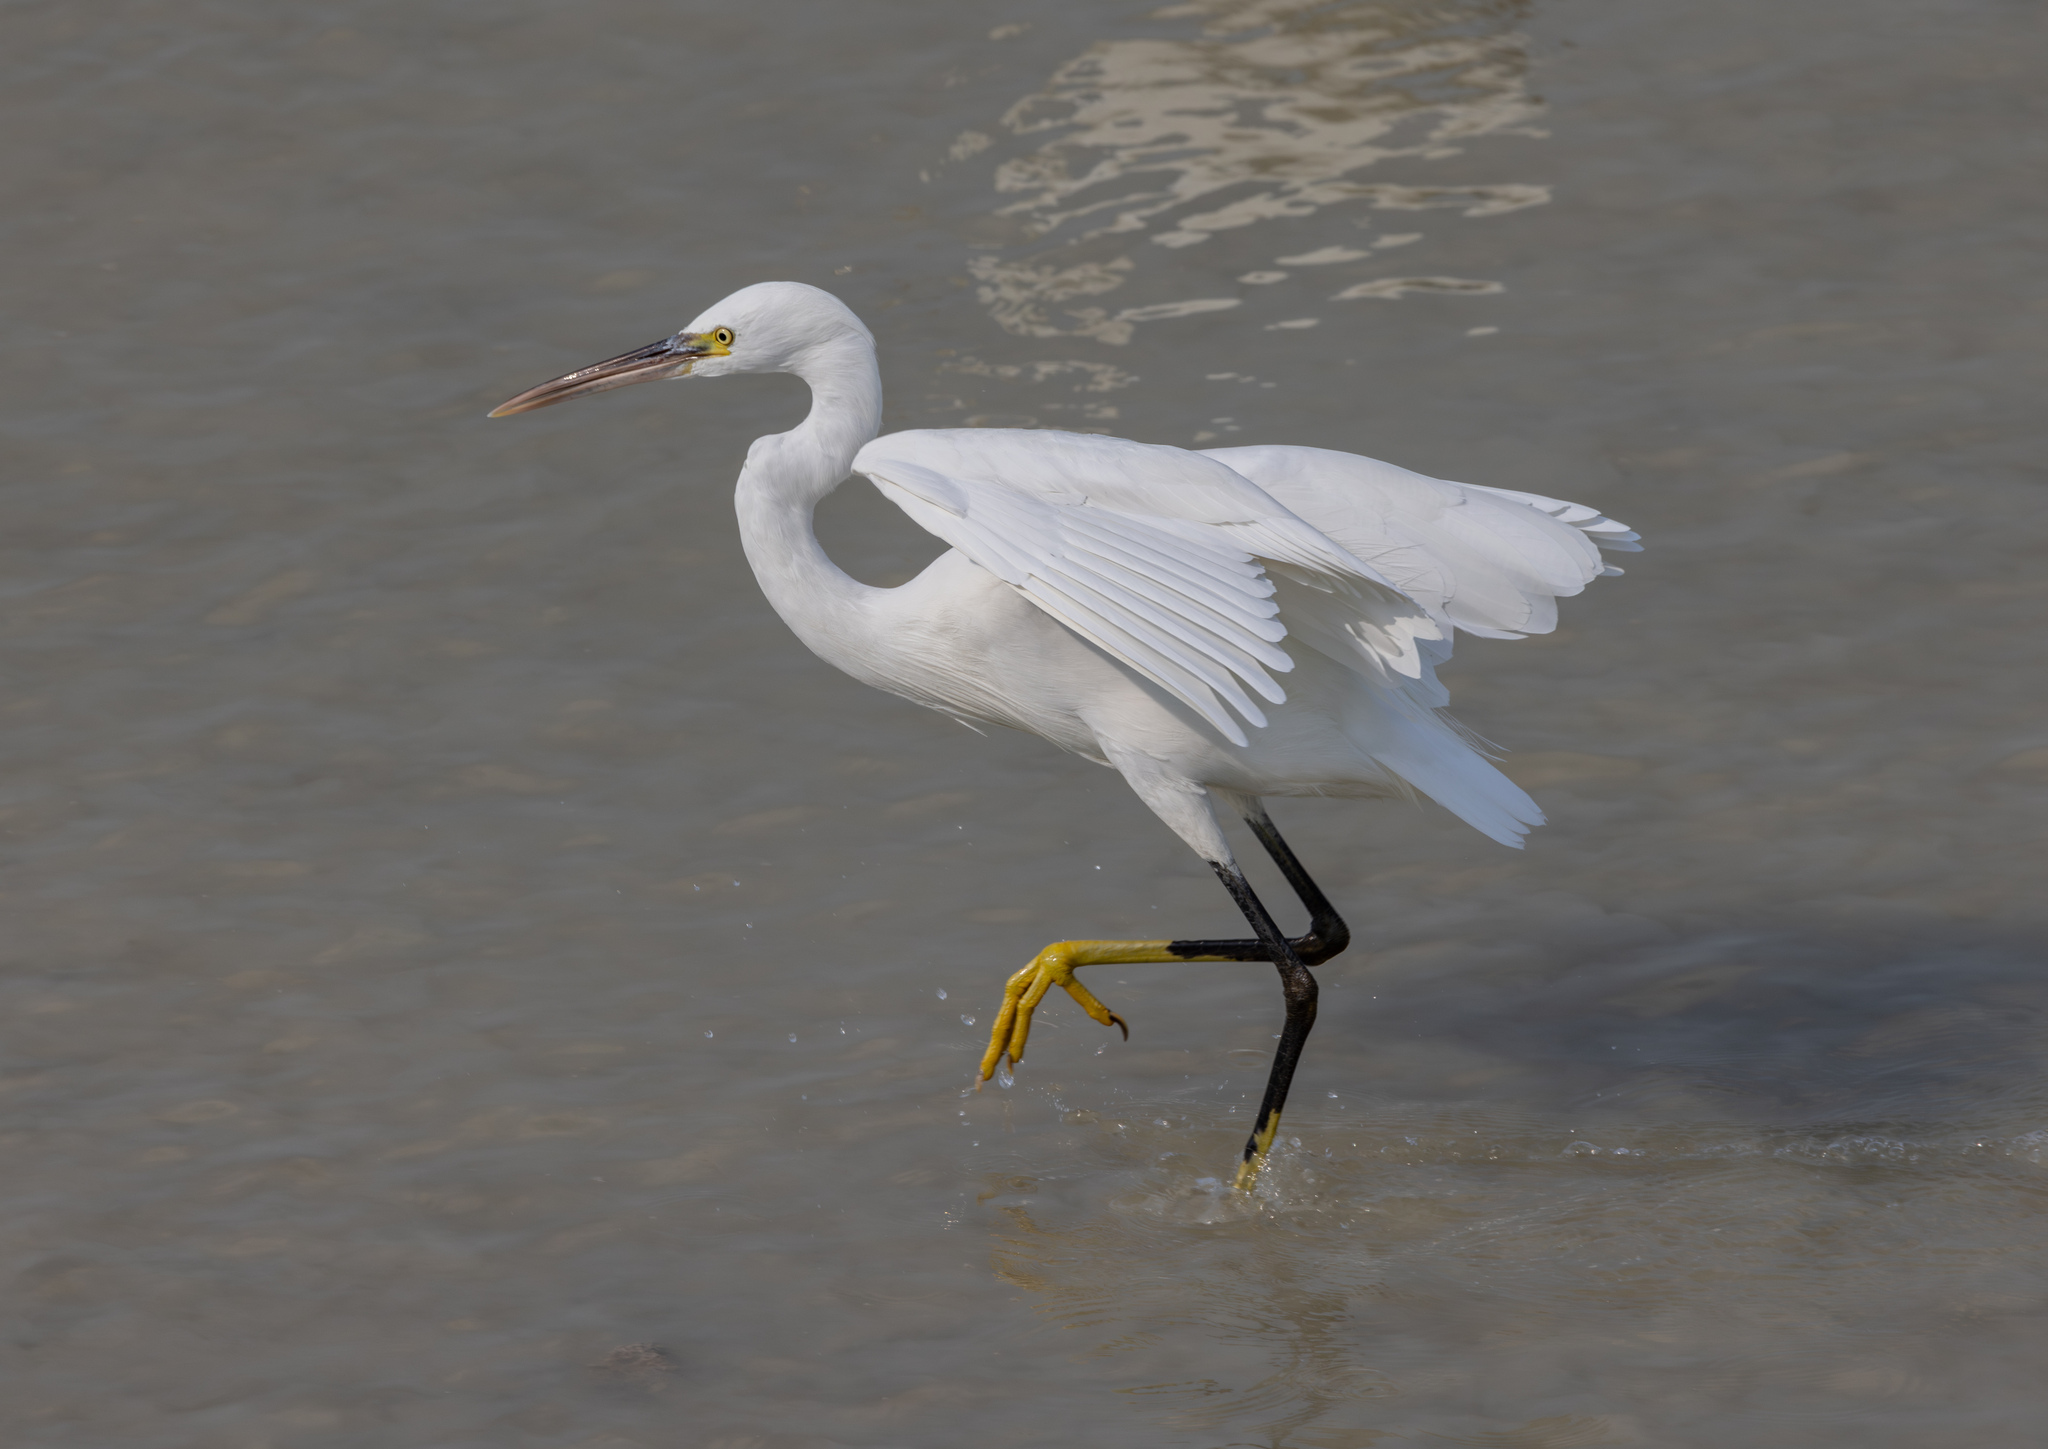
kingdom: Animalia
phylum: Chordata
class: Aves
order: Pelecaniformes
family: Ardeidae
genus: Egretta
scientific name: Egretta gularis
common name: Western reef-heron
